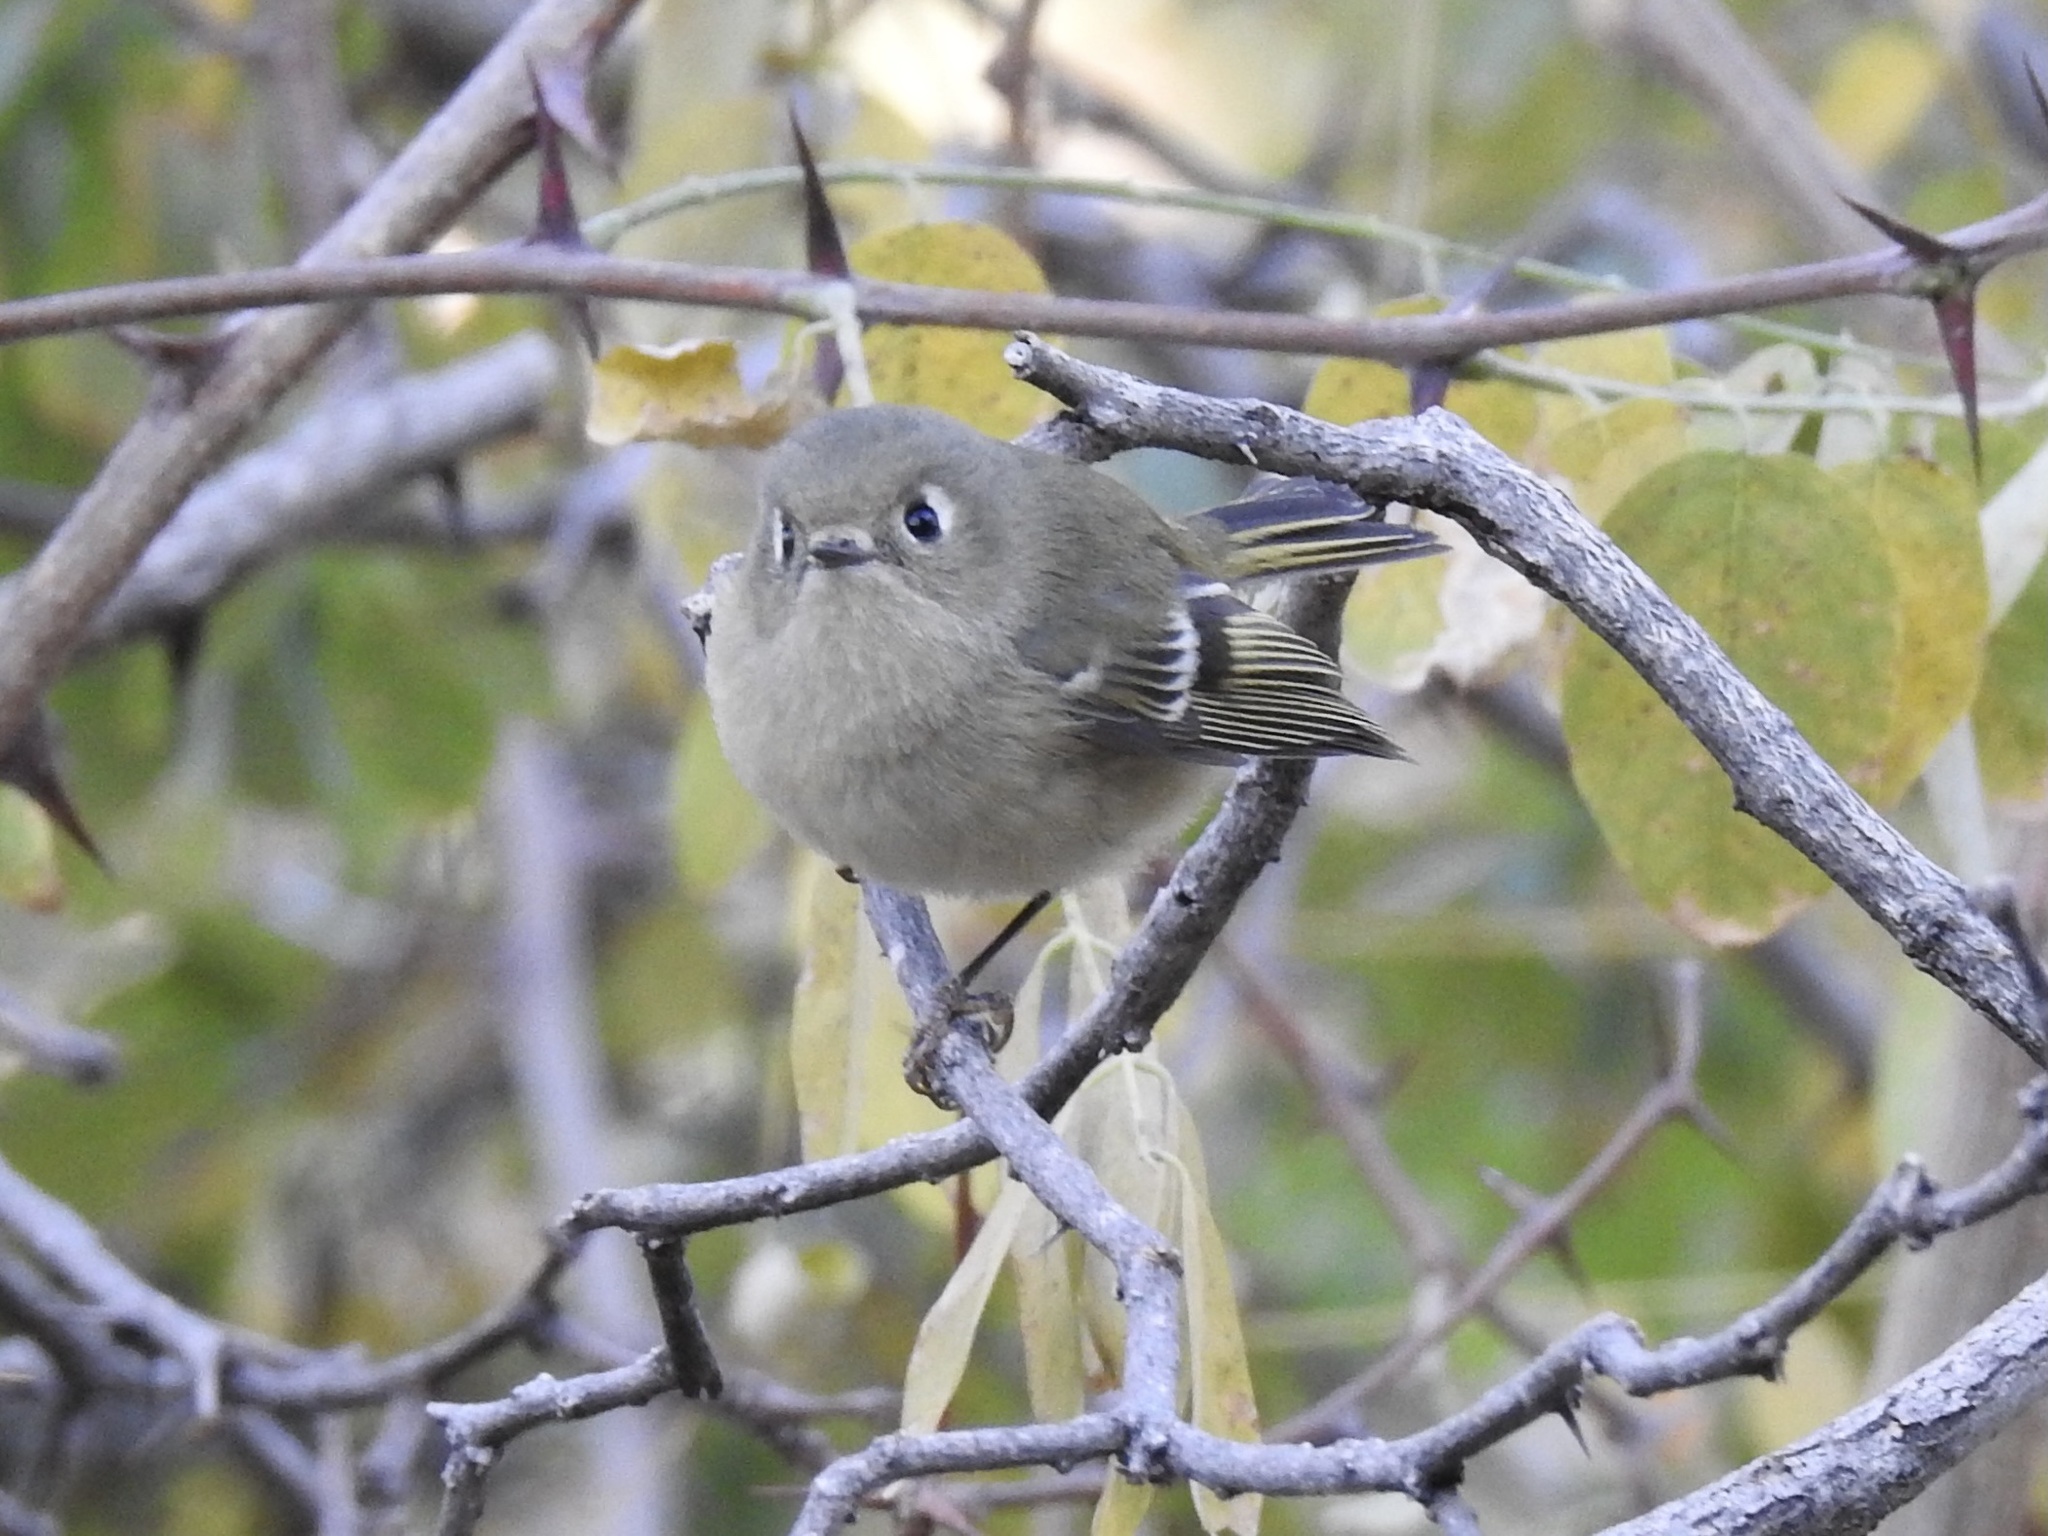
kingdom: Animalia
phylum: Chordata
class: Aves
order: Passeriformes
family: Regulidae
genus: Regulus
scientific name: Regulus calendula
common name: Ruby-crowned kinglet
